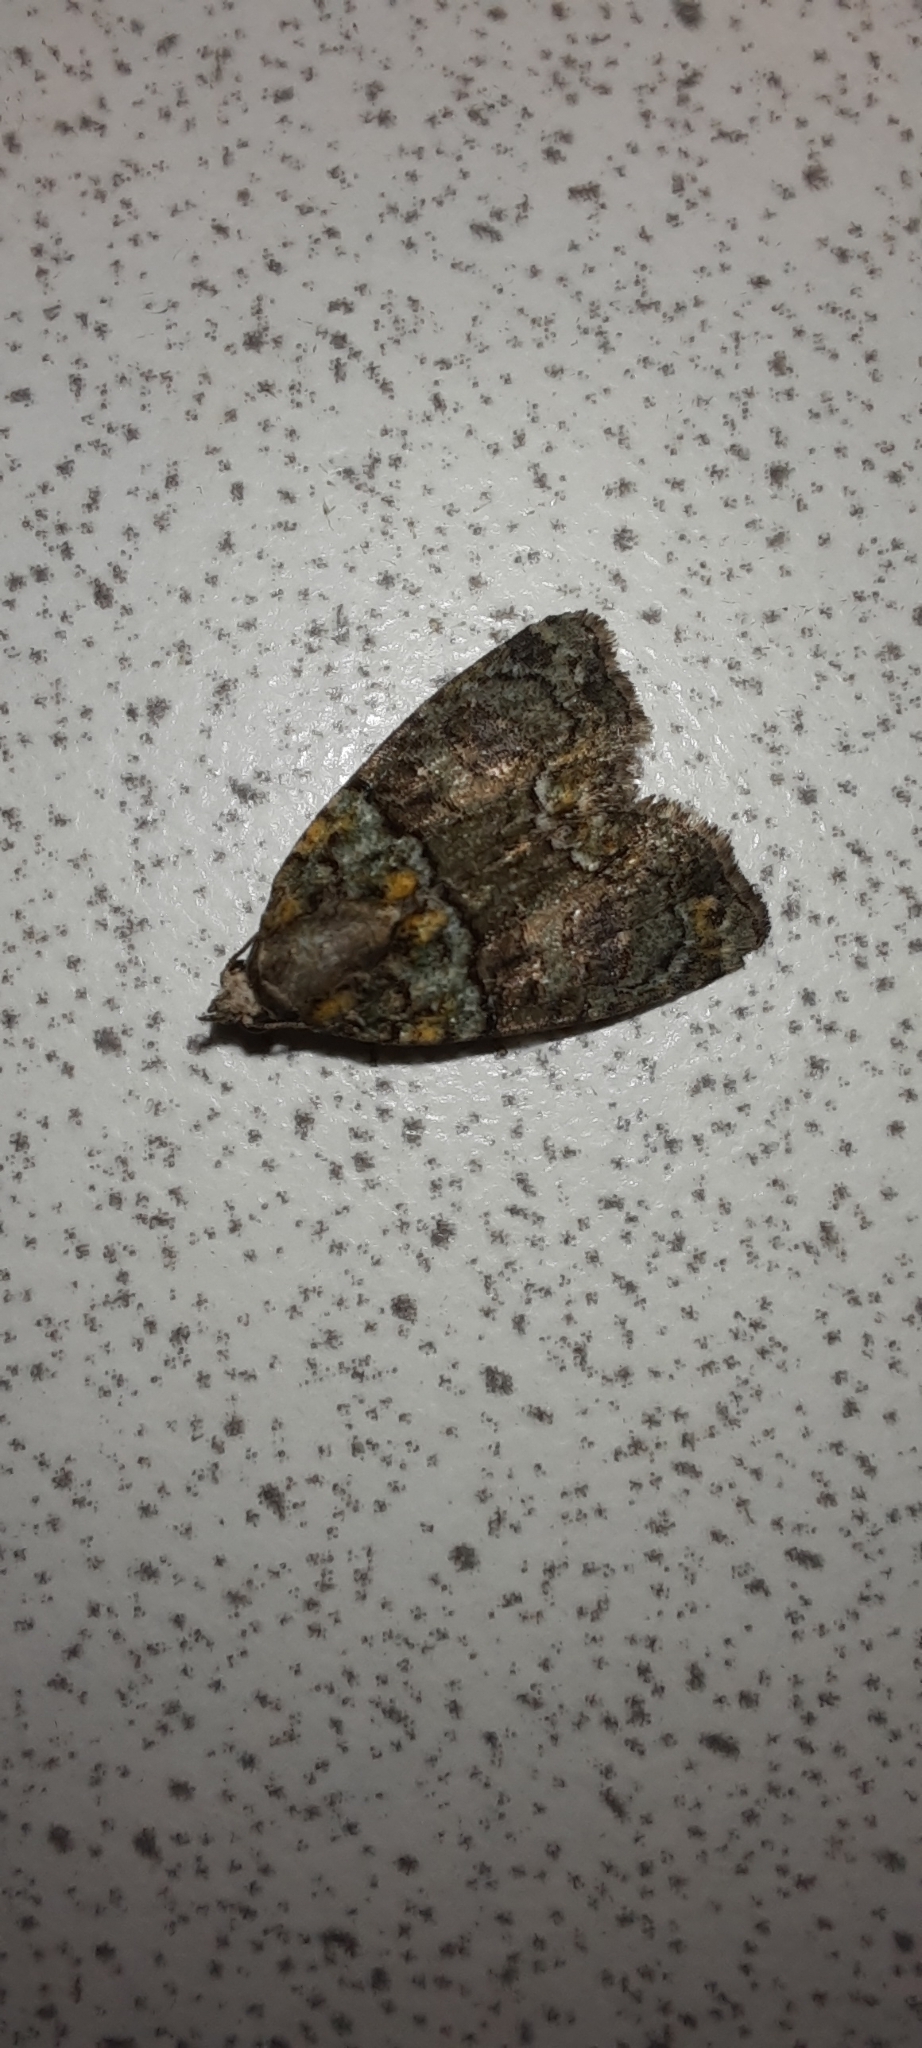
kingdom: Animalia
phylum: Arthropoda
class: Insecta
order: Lepidoptera
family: Noctuidae
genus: Cryphia
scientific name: Cryphia algae
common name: Tree-lichen beauty
